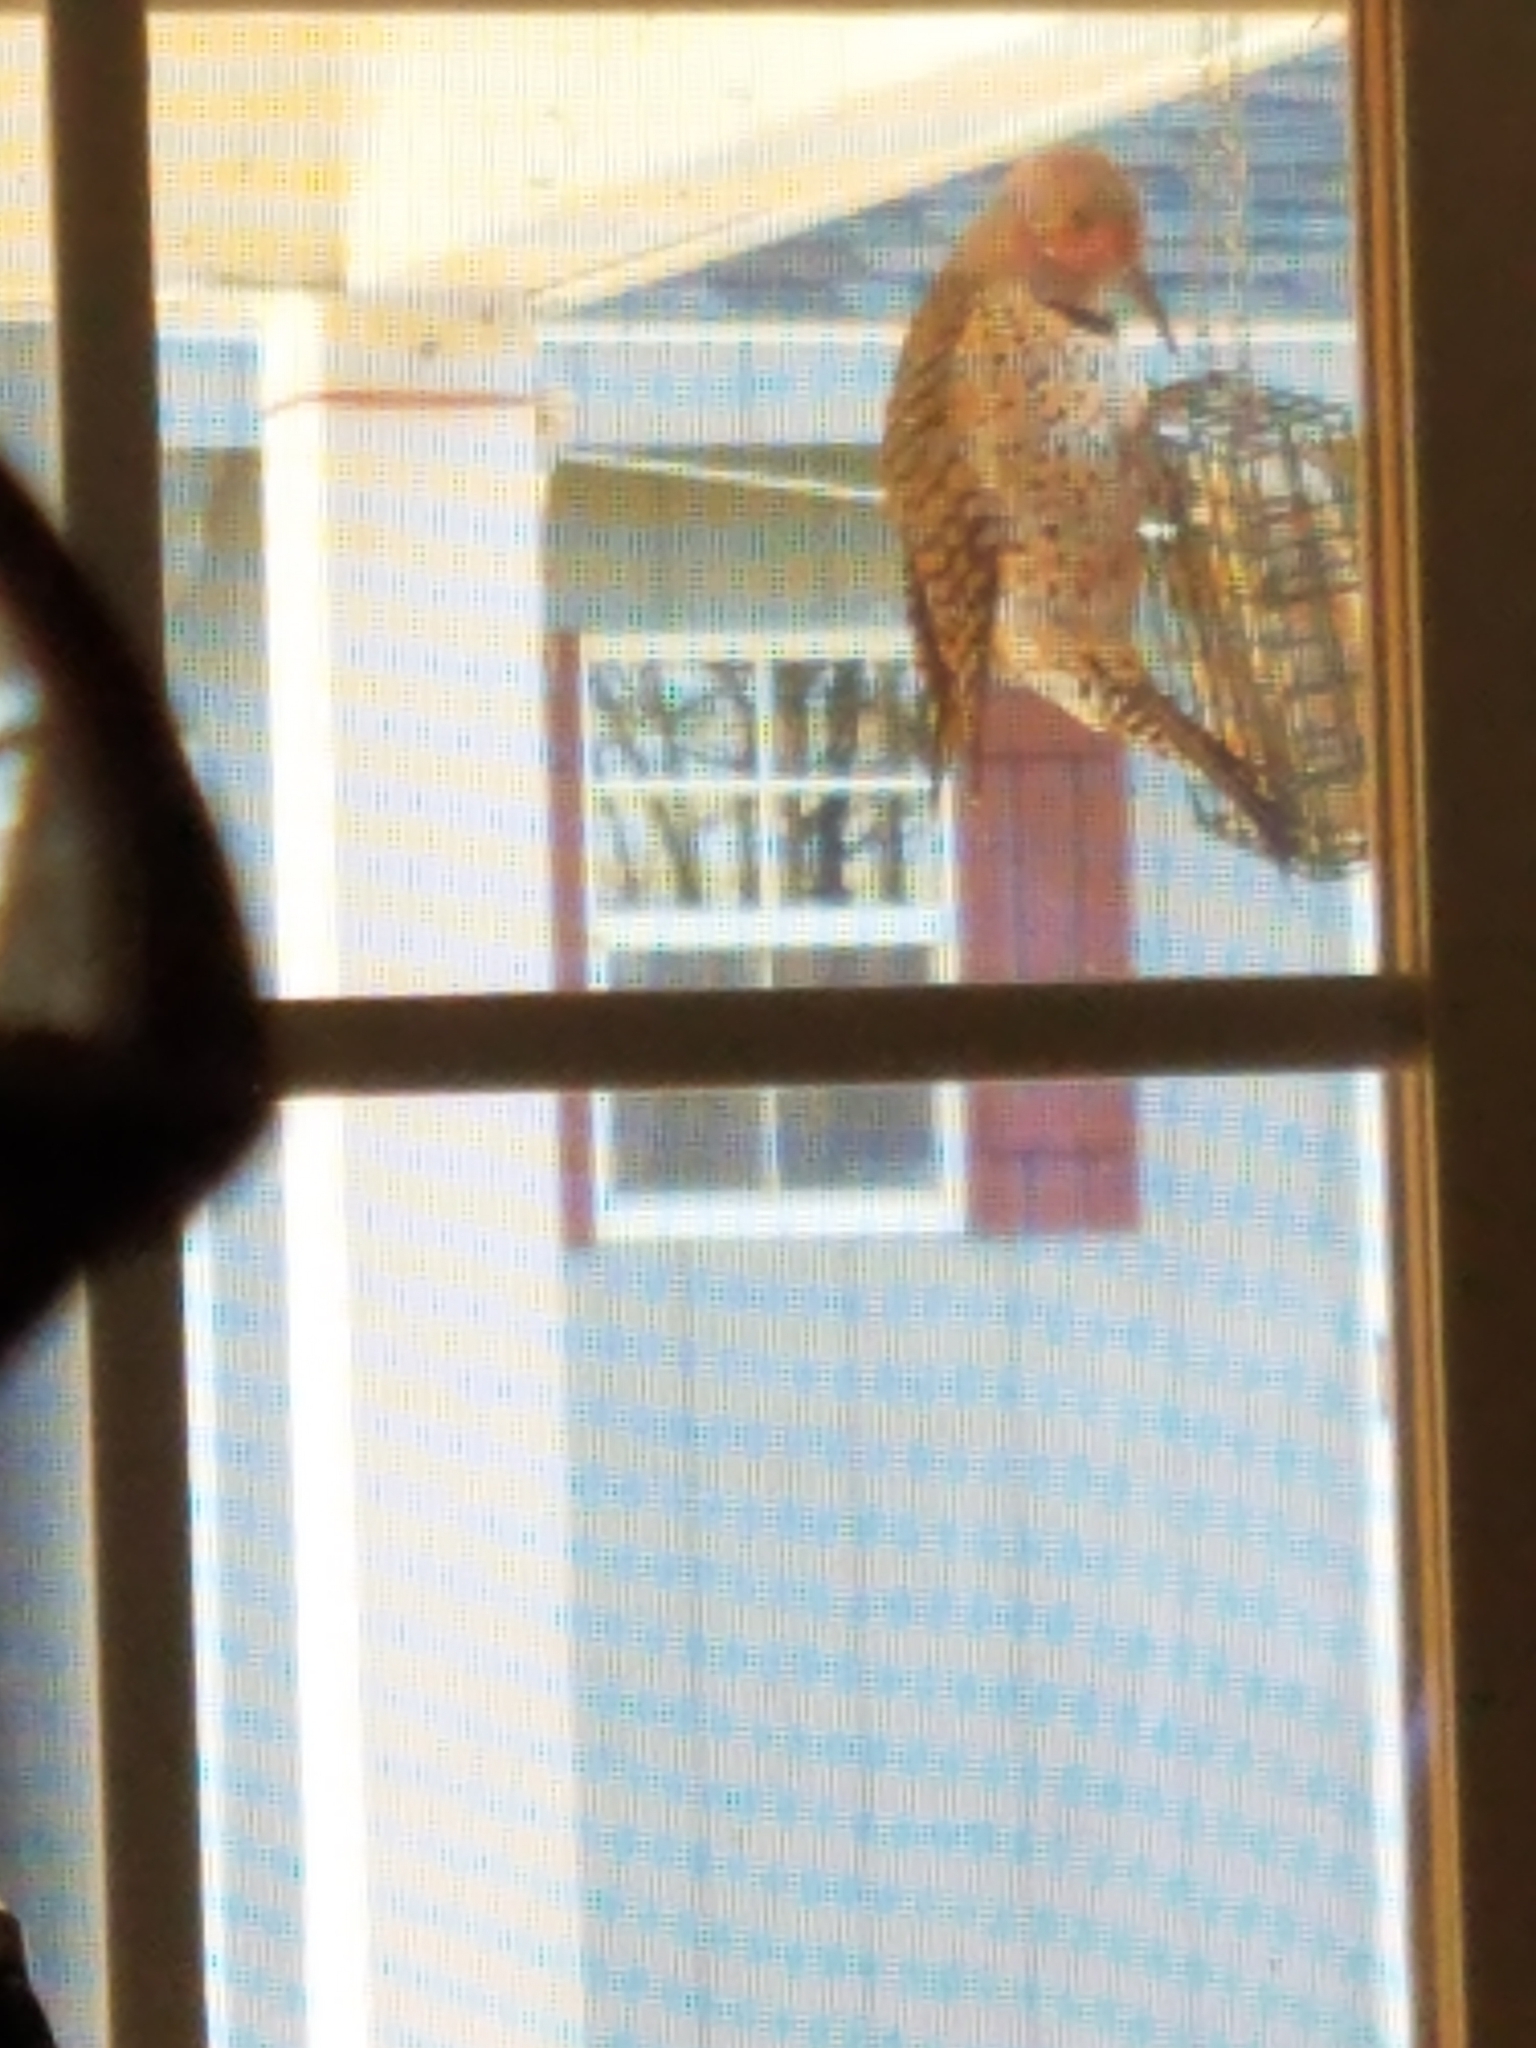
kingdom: Animalia
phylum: Chordata
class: Aves
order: Piciformes
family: Picidae
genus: Colaptes
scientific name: Colaptes auratus
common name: Northern flicker
